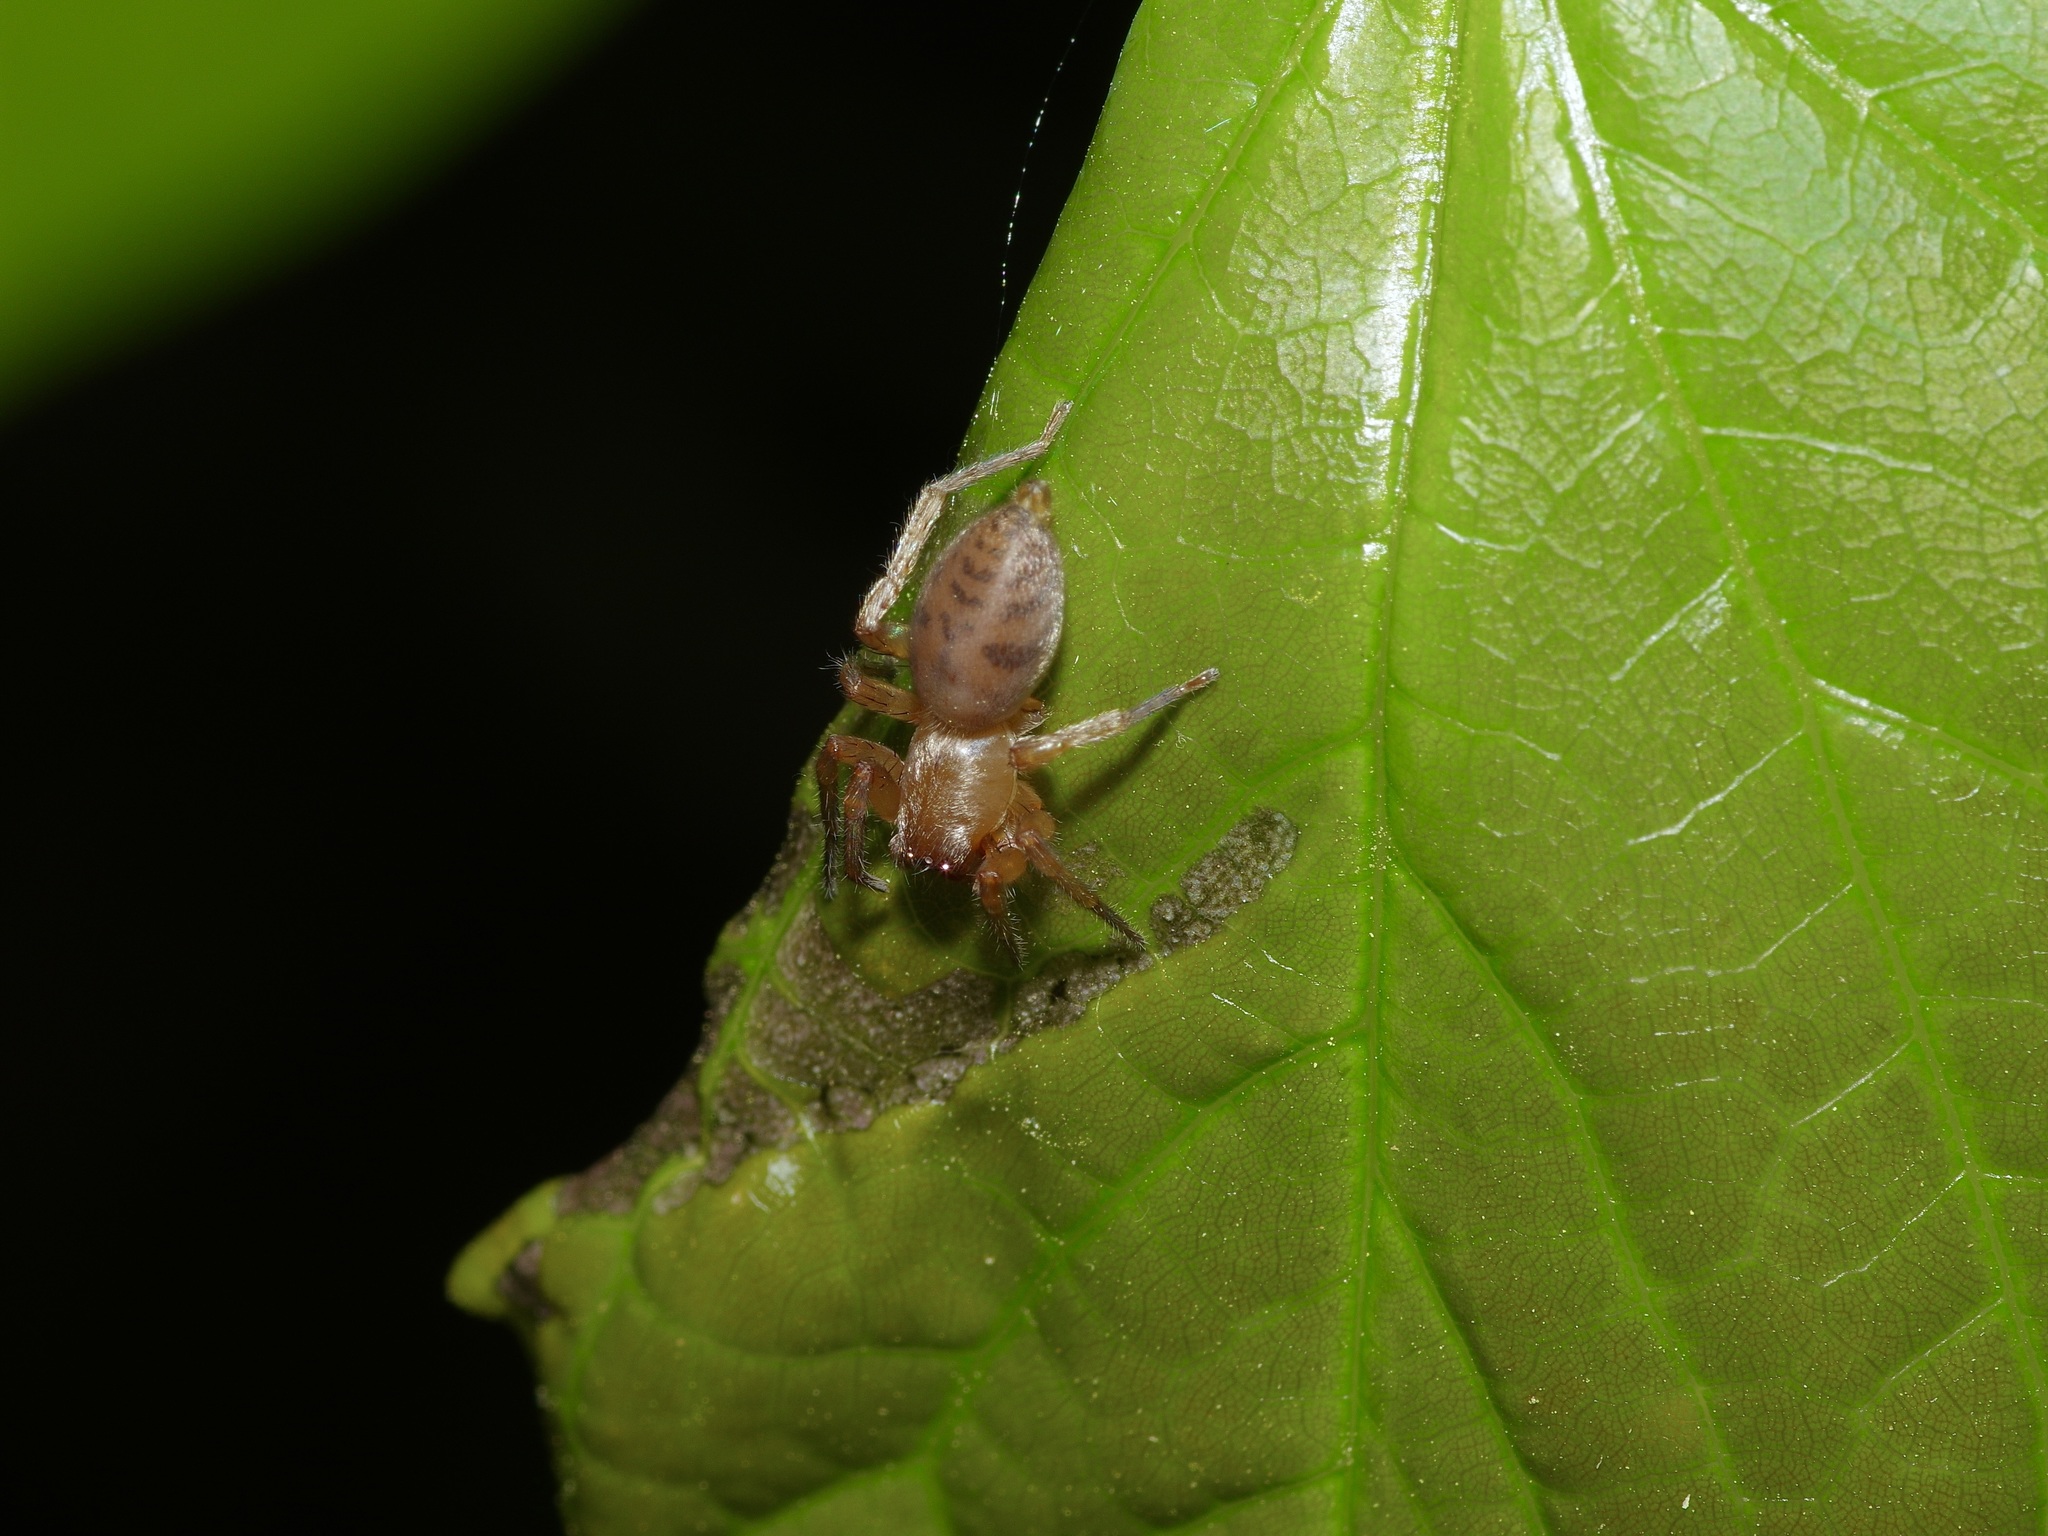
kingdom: Animalia
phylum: Arthropoda
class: Arachnida
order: Araneae
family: Clubionidae
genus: Elaver
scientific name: Elaver excepta
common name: White sac spider
